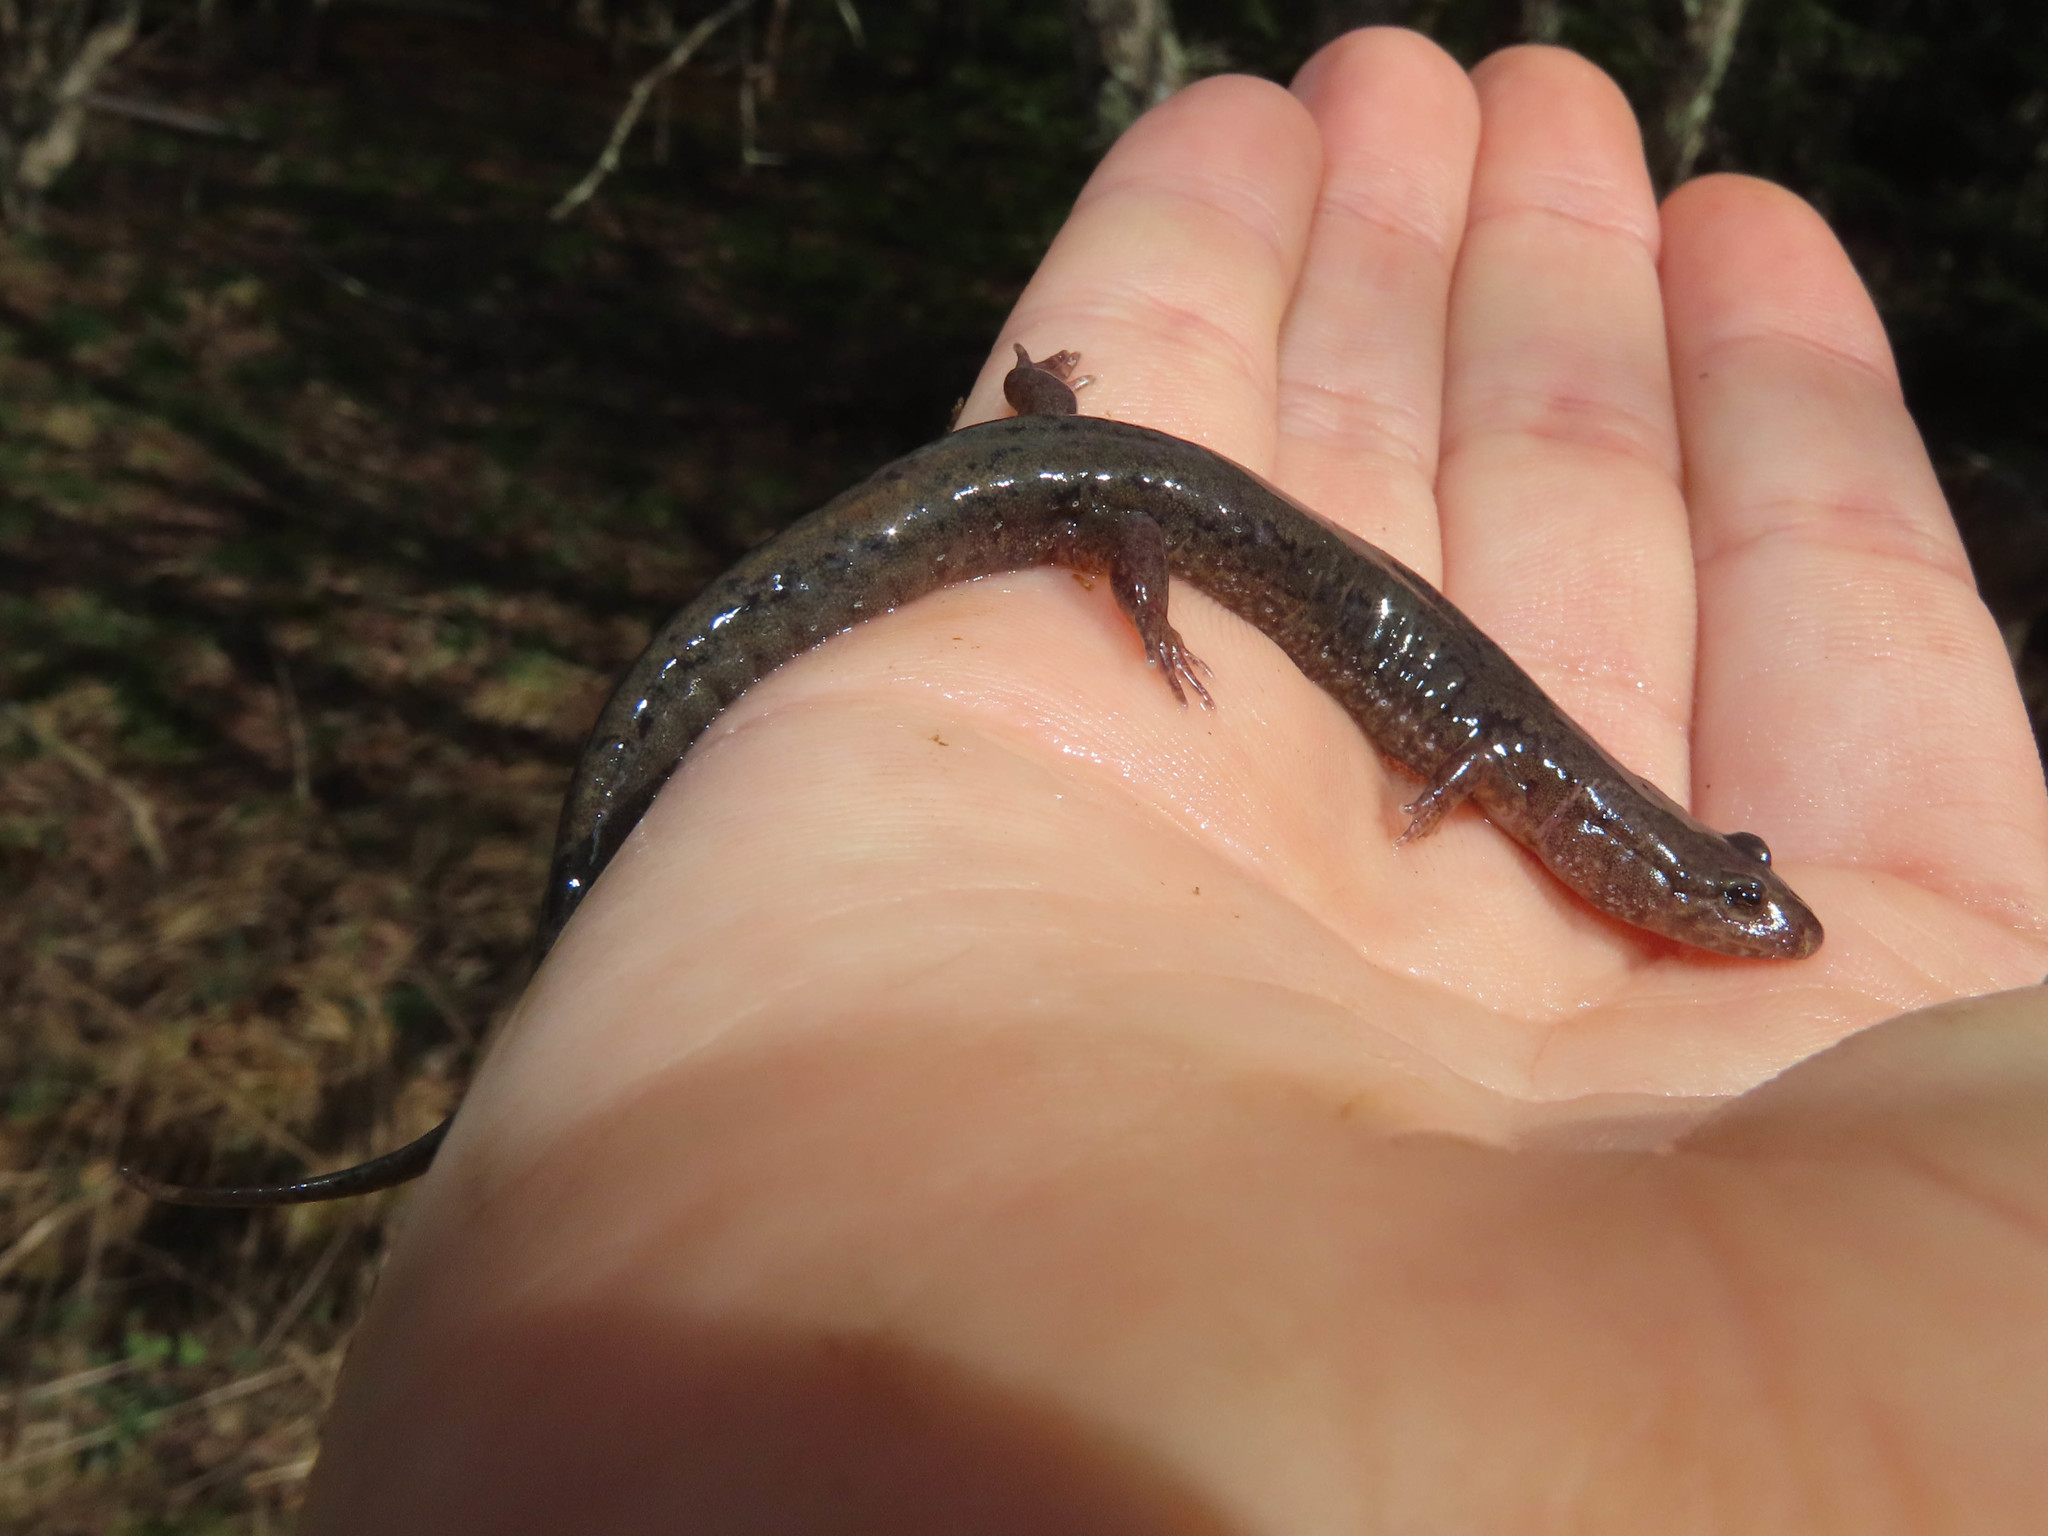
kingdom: Animalia
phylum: Chordata
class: Amphibia
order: Caudata
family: Plethodontidae
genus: Desmognathus
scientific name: Desmognathus fuscus
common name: Northern dusky salamander
